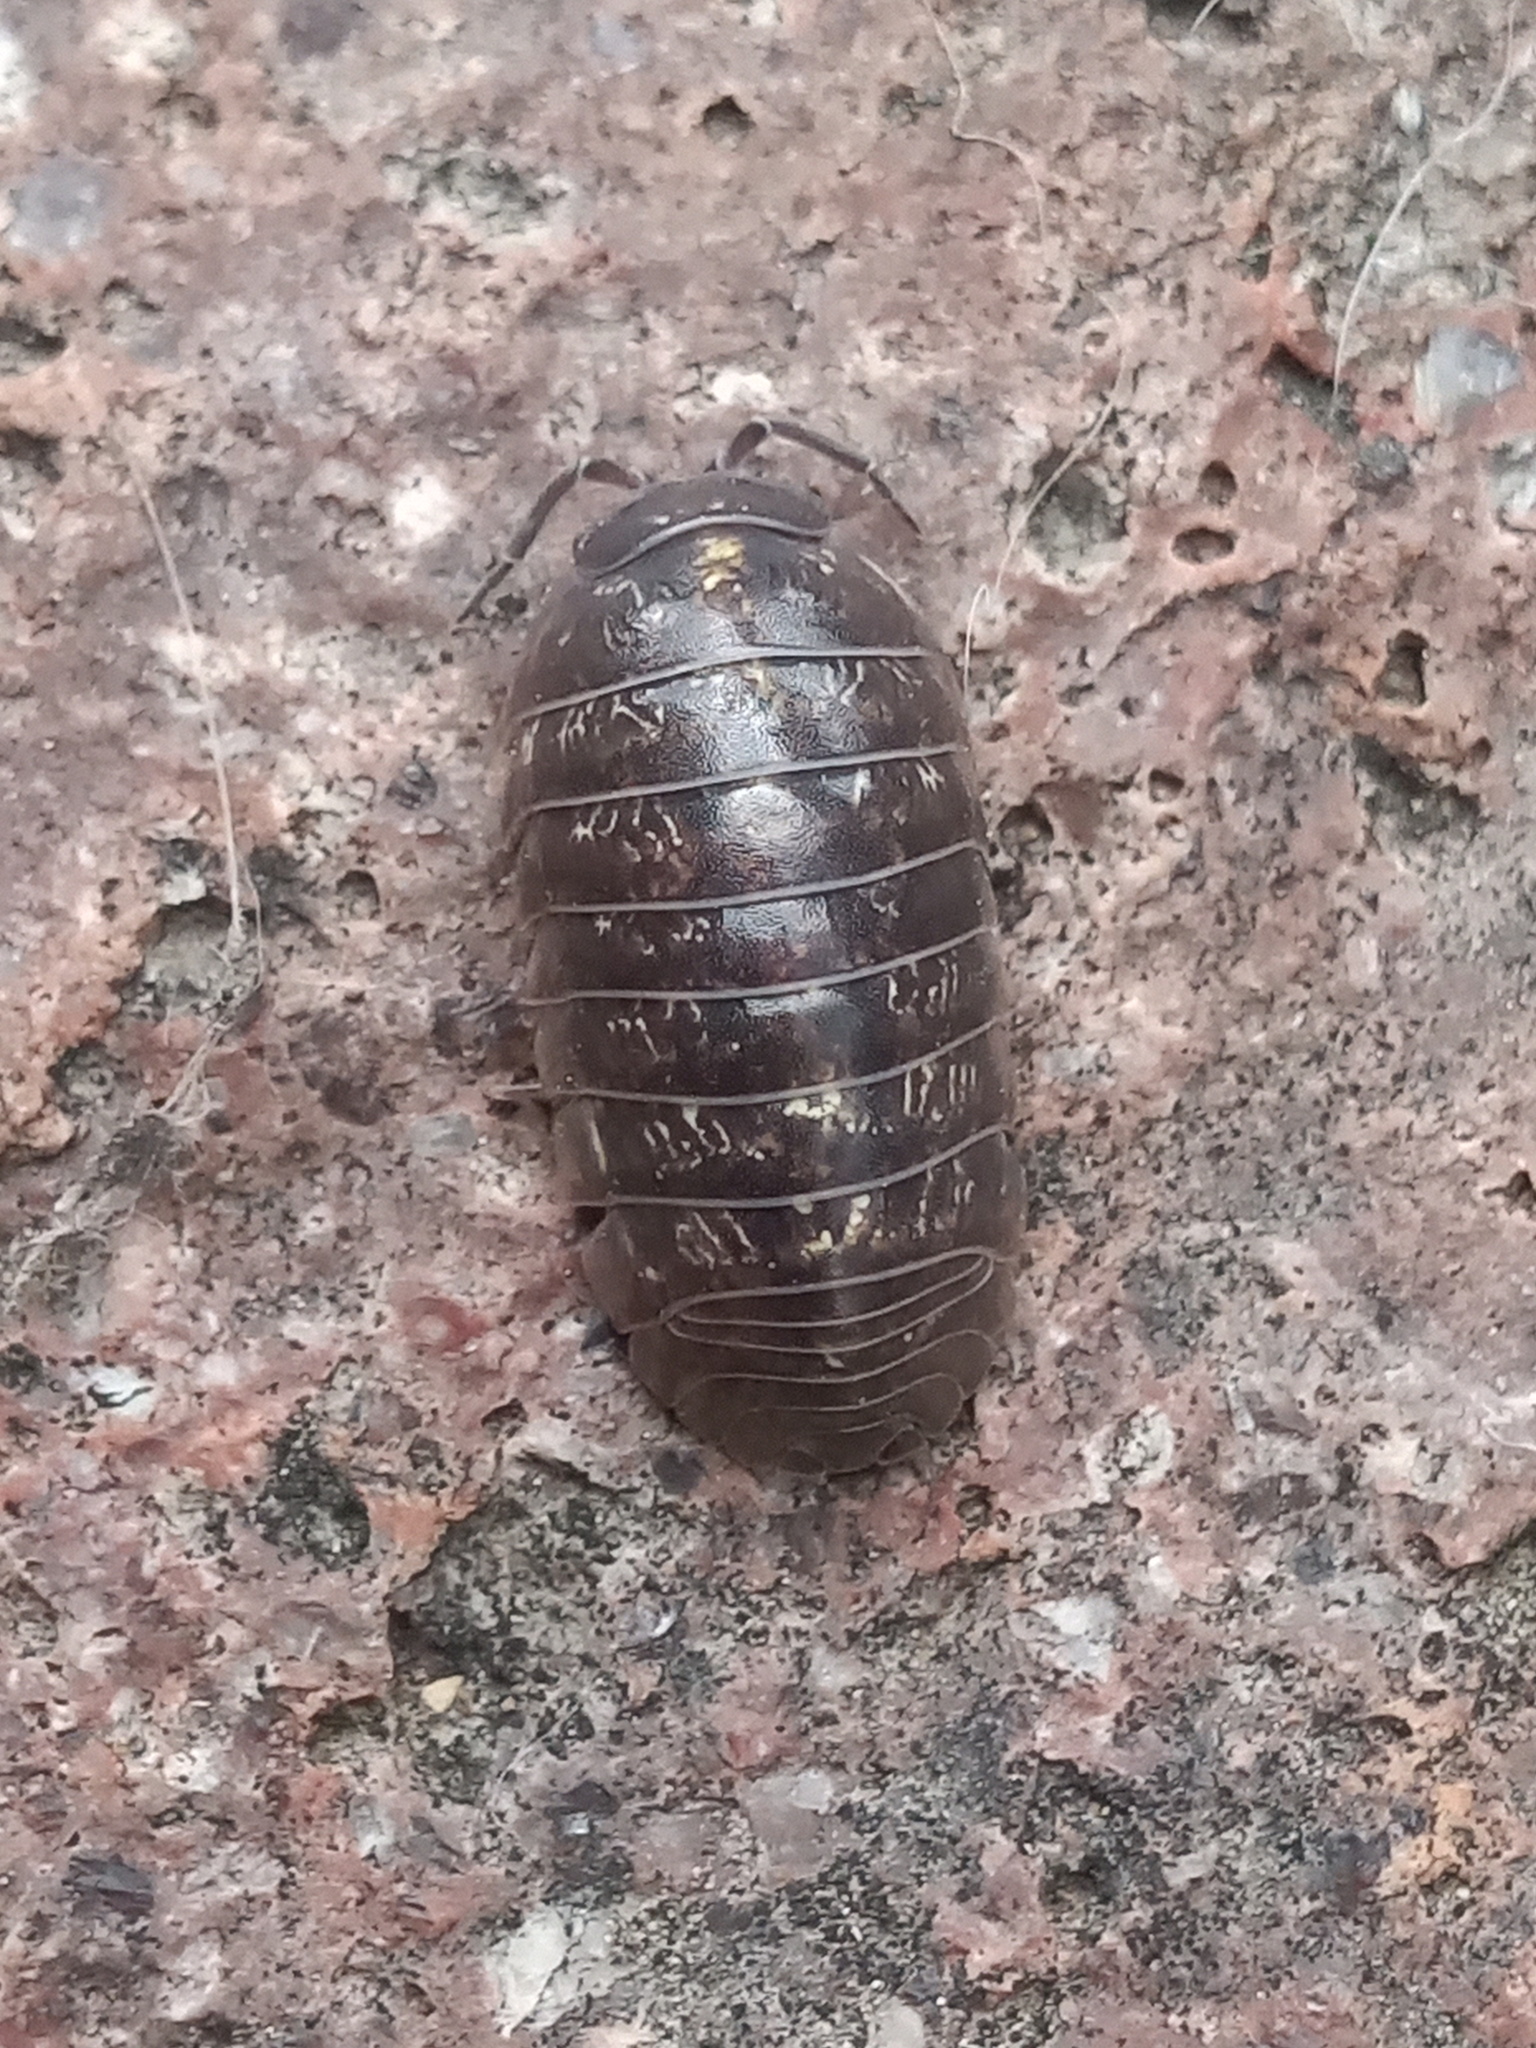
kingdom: Animalia
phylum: Arthropoda
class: Malacostraca
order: Isopoda
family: Armadillidiidae
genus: Armadillidium
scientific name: Armadillidium vulgare
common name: Common pill woodlouse
